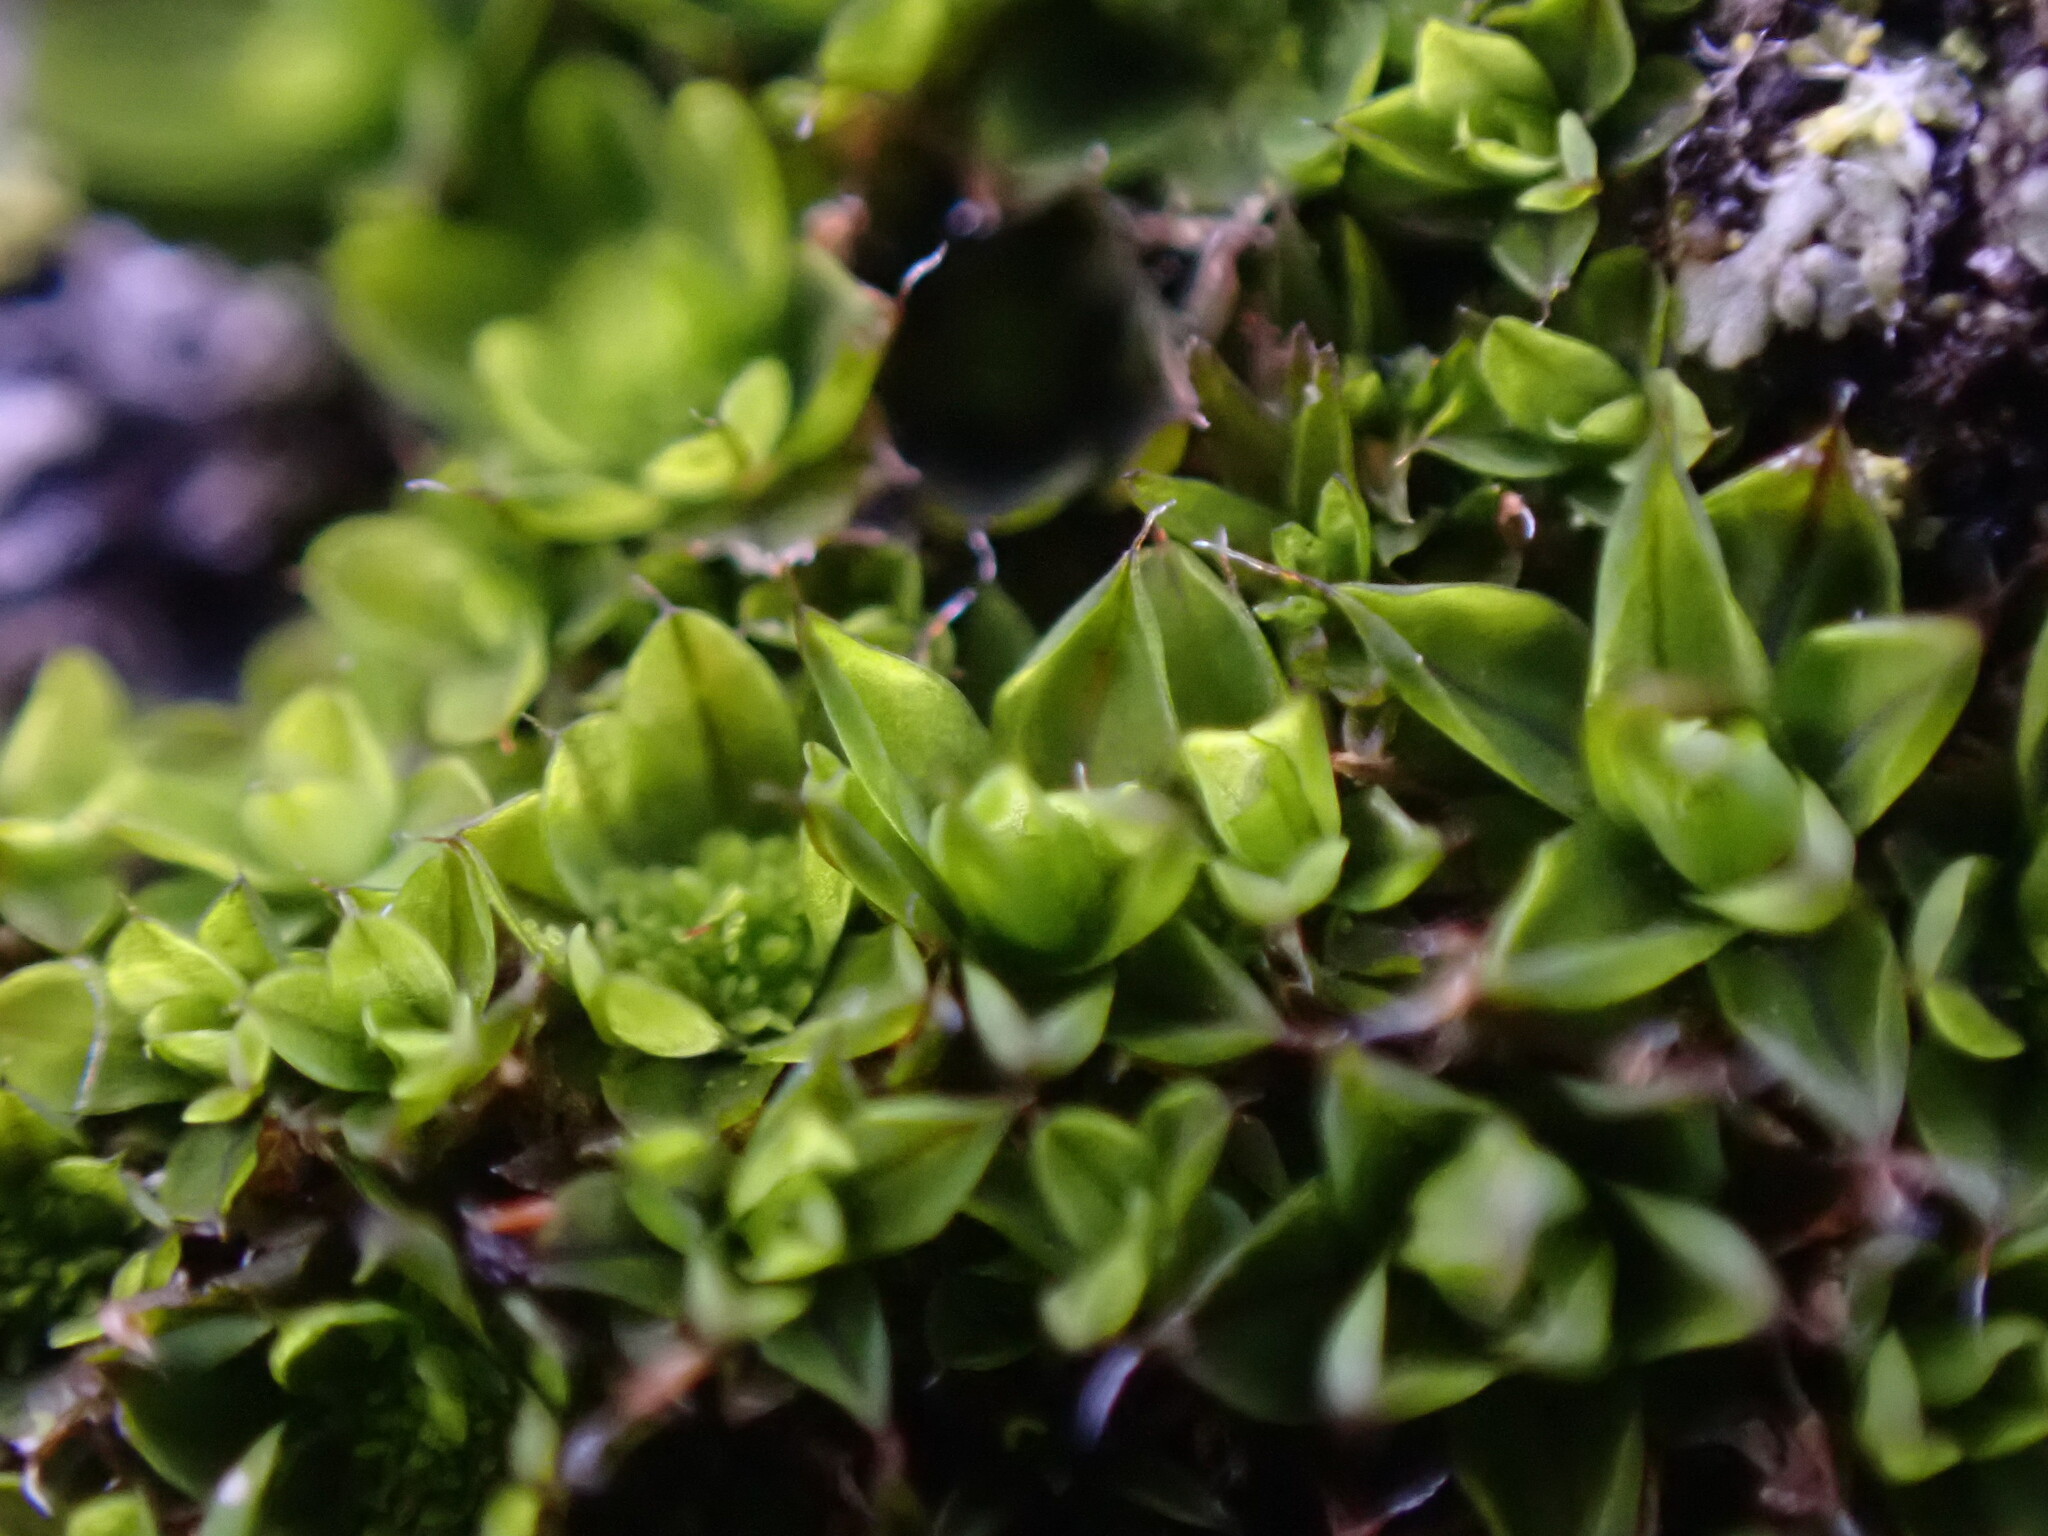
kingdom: Plantae
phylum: Bryophyta
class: Bryopsida
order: Pottiales
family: Pottiaceae
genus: Syntrichia
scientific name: Syntrichia pagorum
